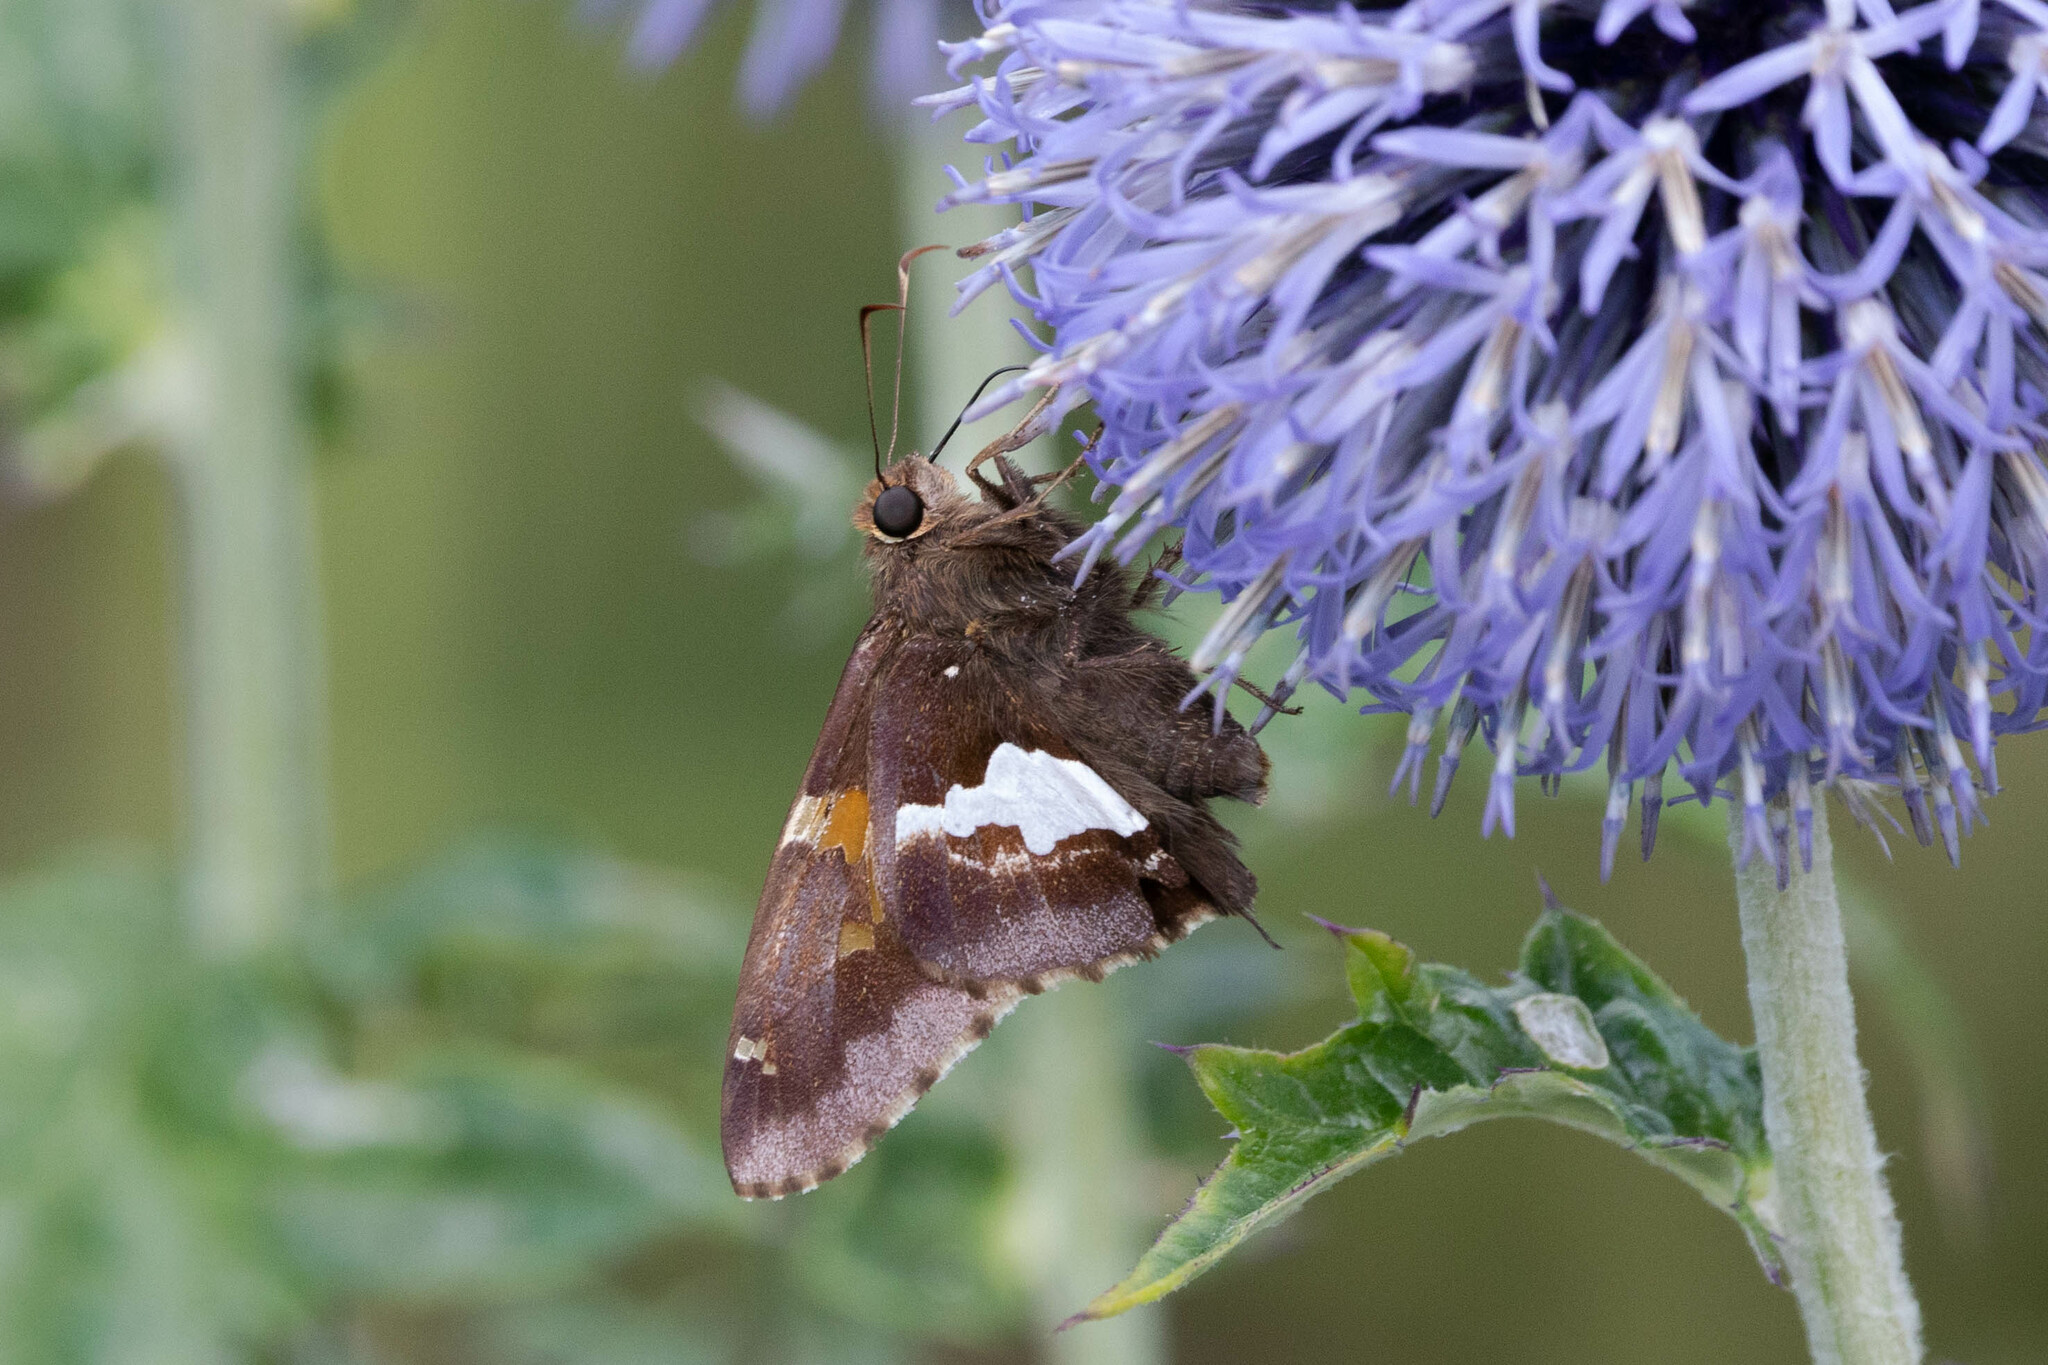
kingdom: Animalia
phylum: Arthropoda
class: Insecta
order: Lepidoptera
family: Hesperiidae
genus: Epargyreus
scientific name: Epargyreus clarus
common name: Silver-spotted skipper
